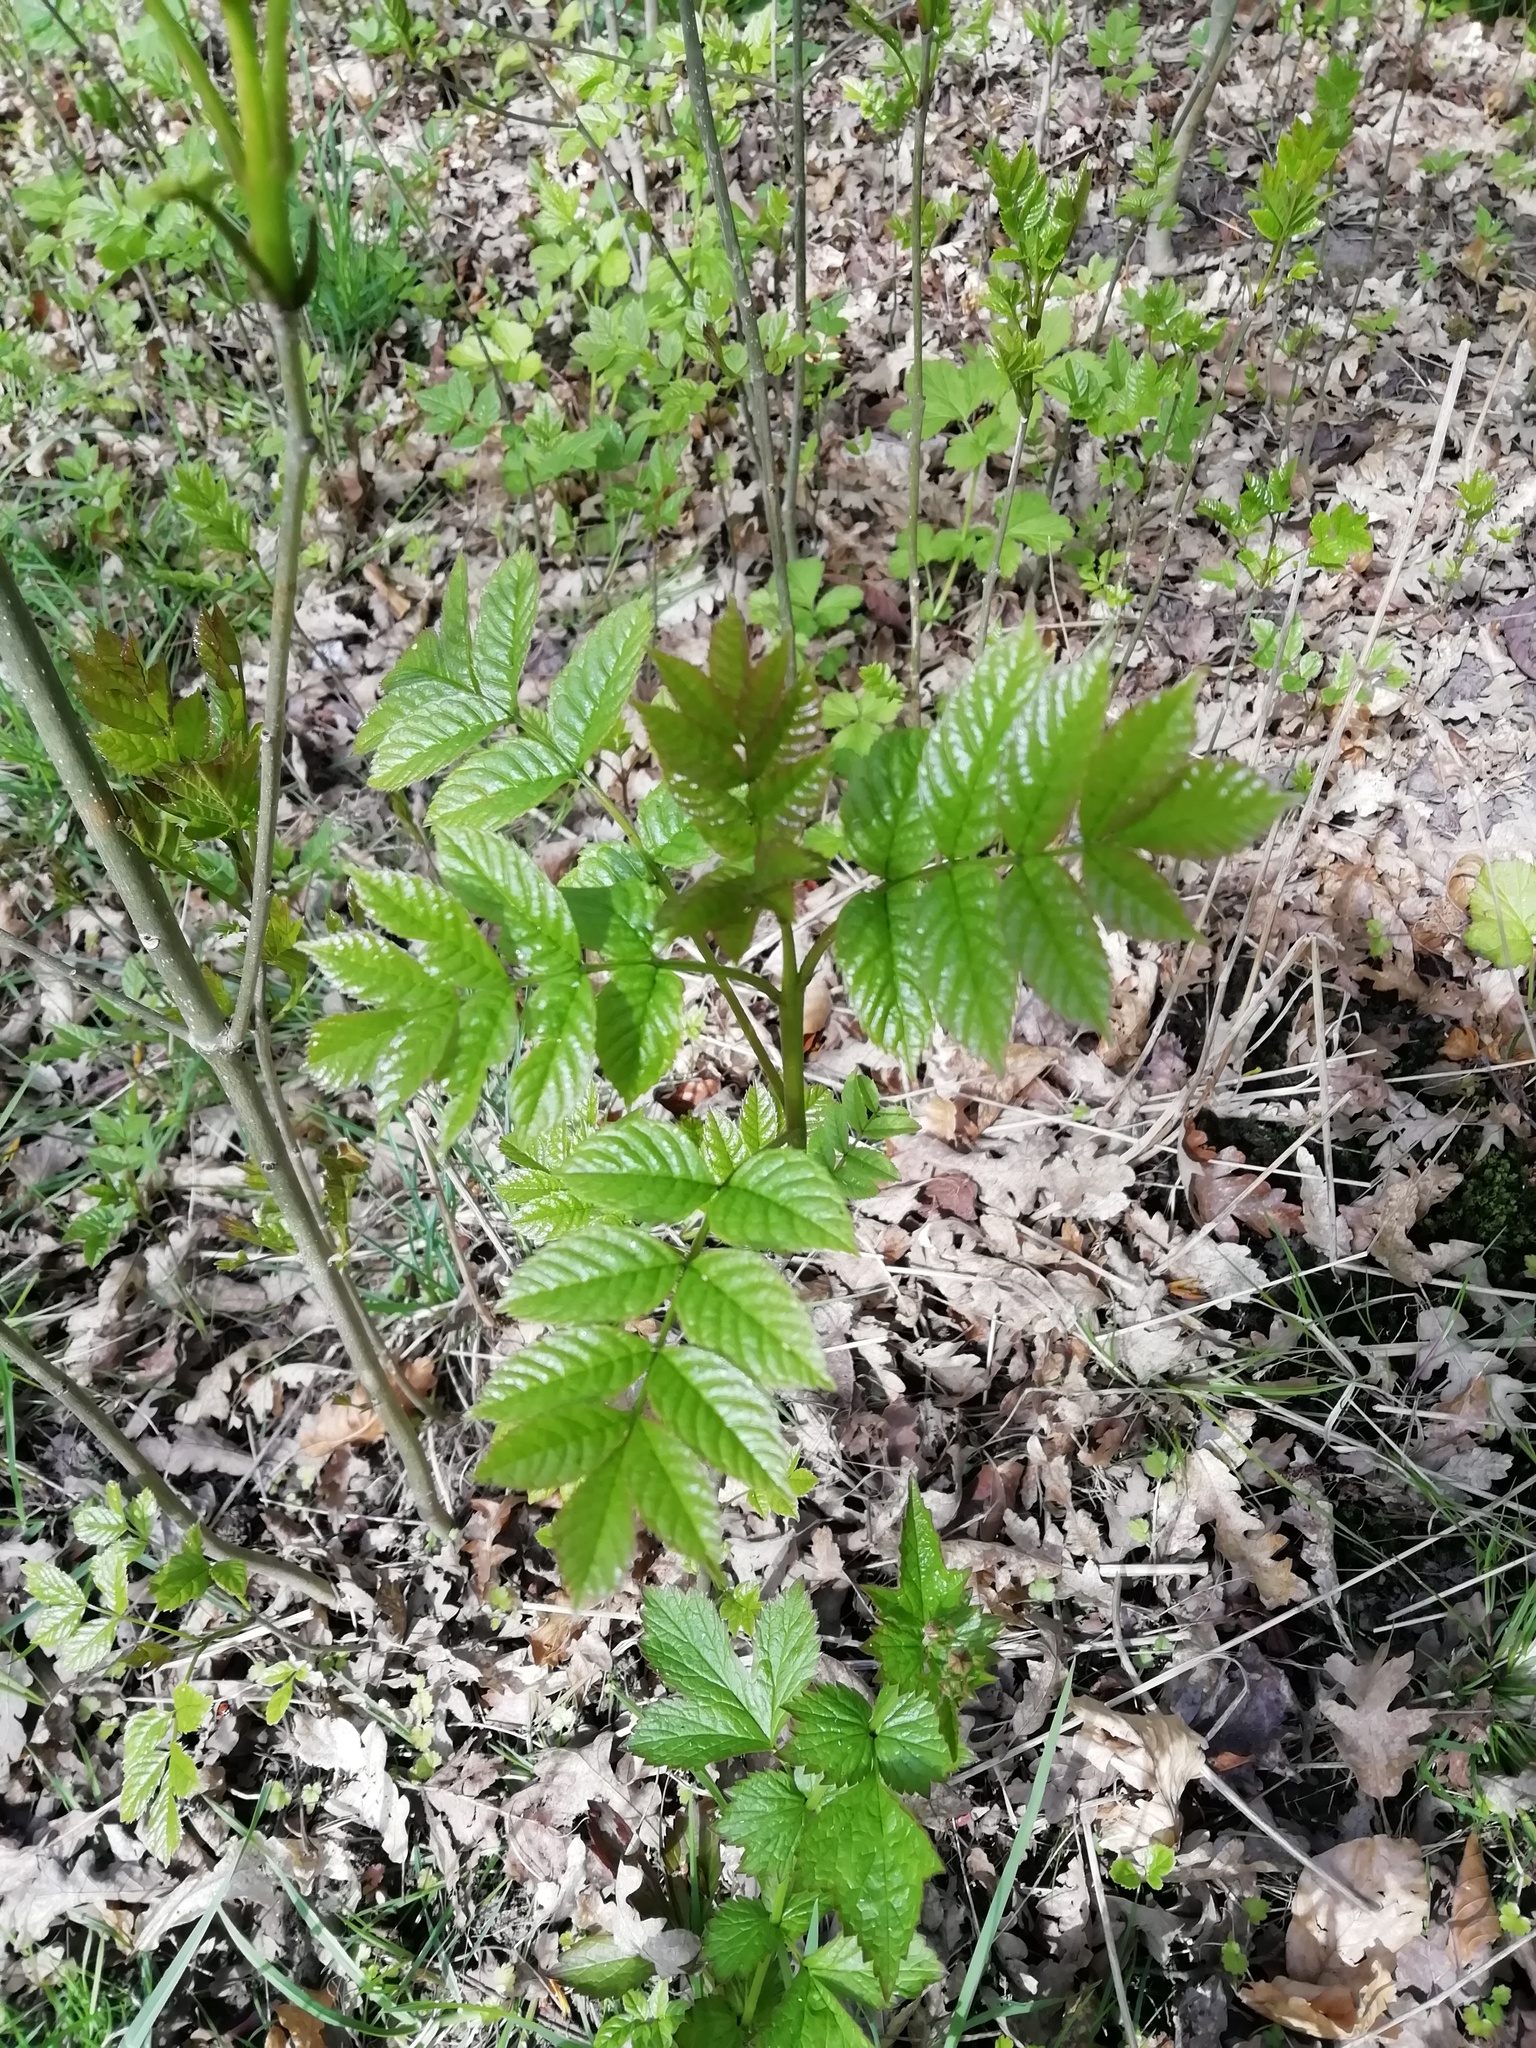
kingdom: Plantae
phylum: Tracheophyta
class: Magnoliopsida
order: Lamiales
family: Oleaceae
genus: Fraxinus
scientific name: Fraxinus excelsior
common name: European ash
